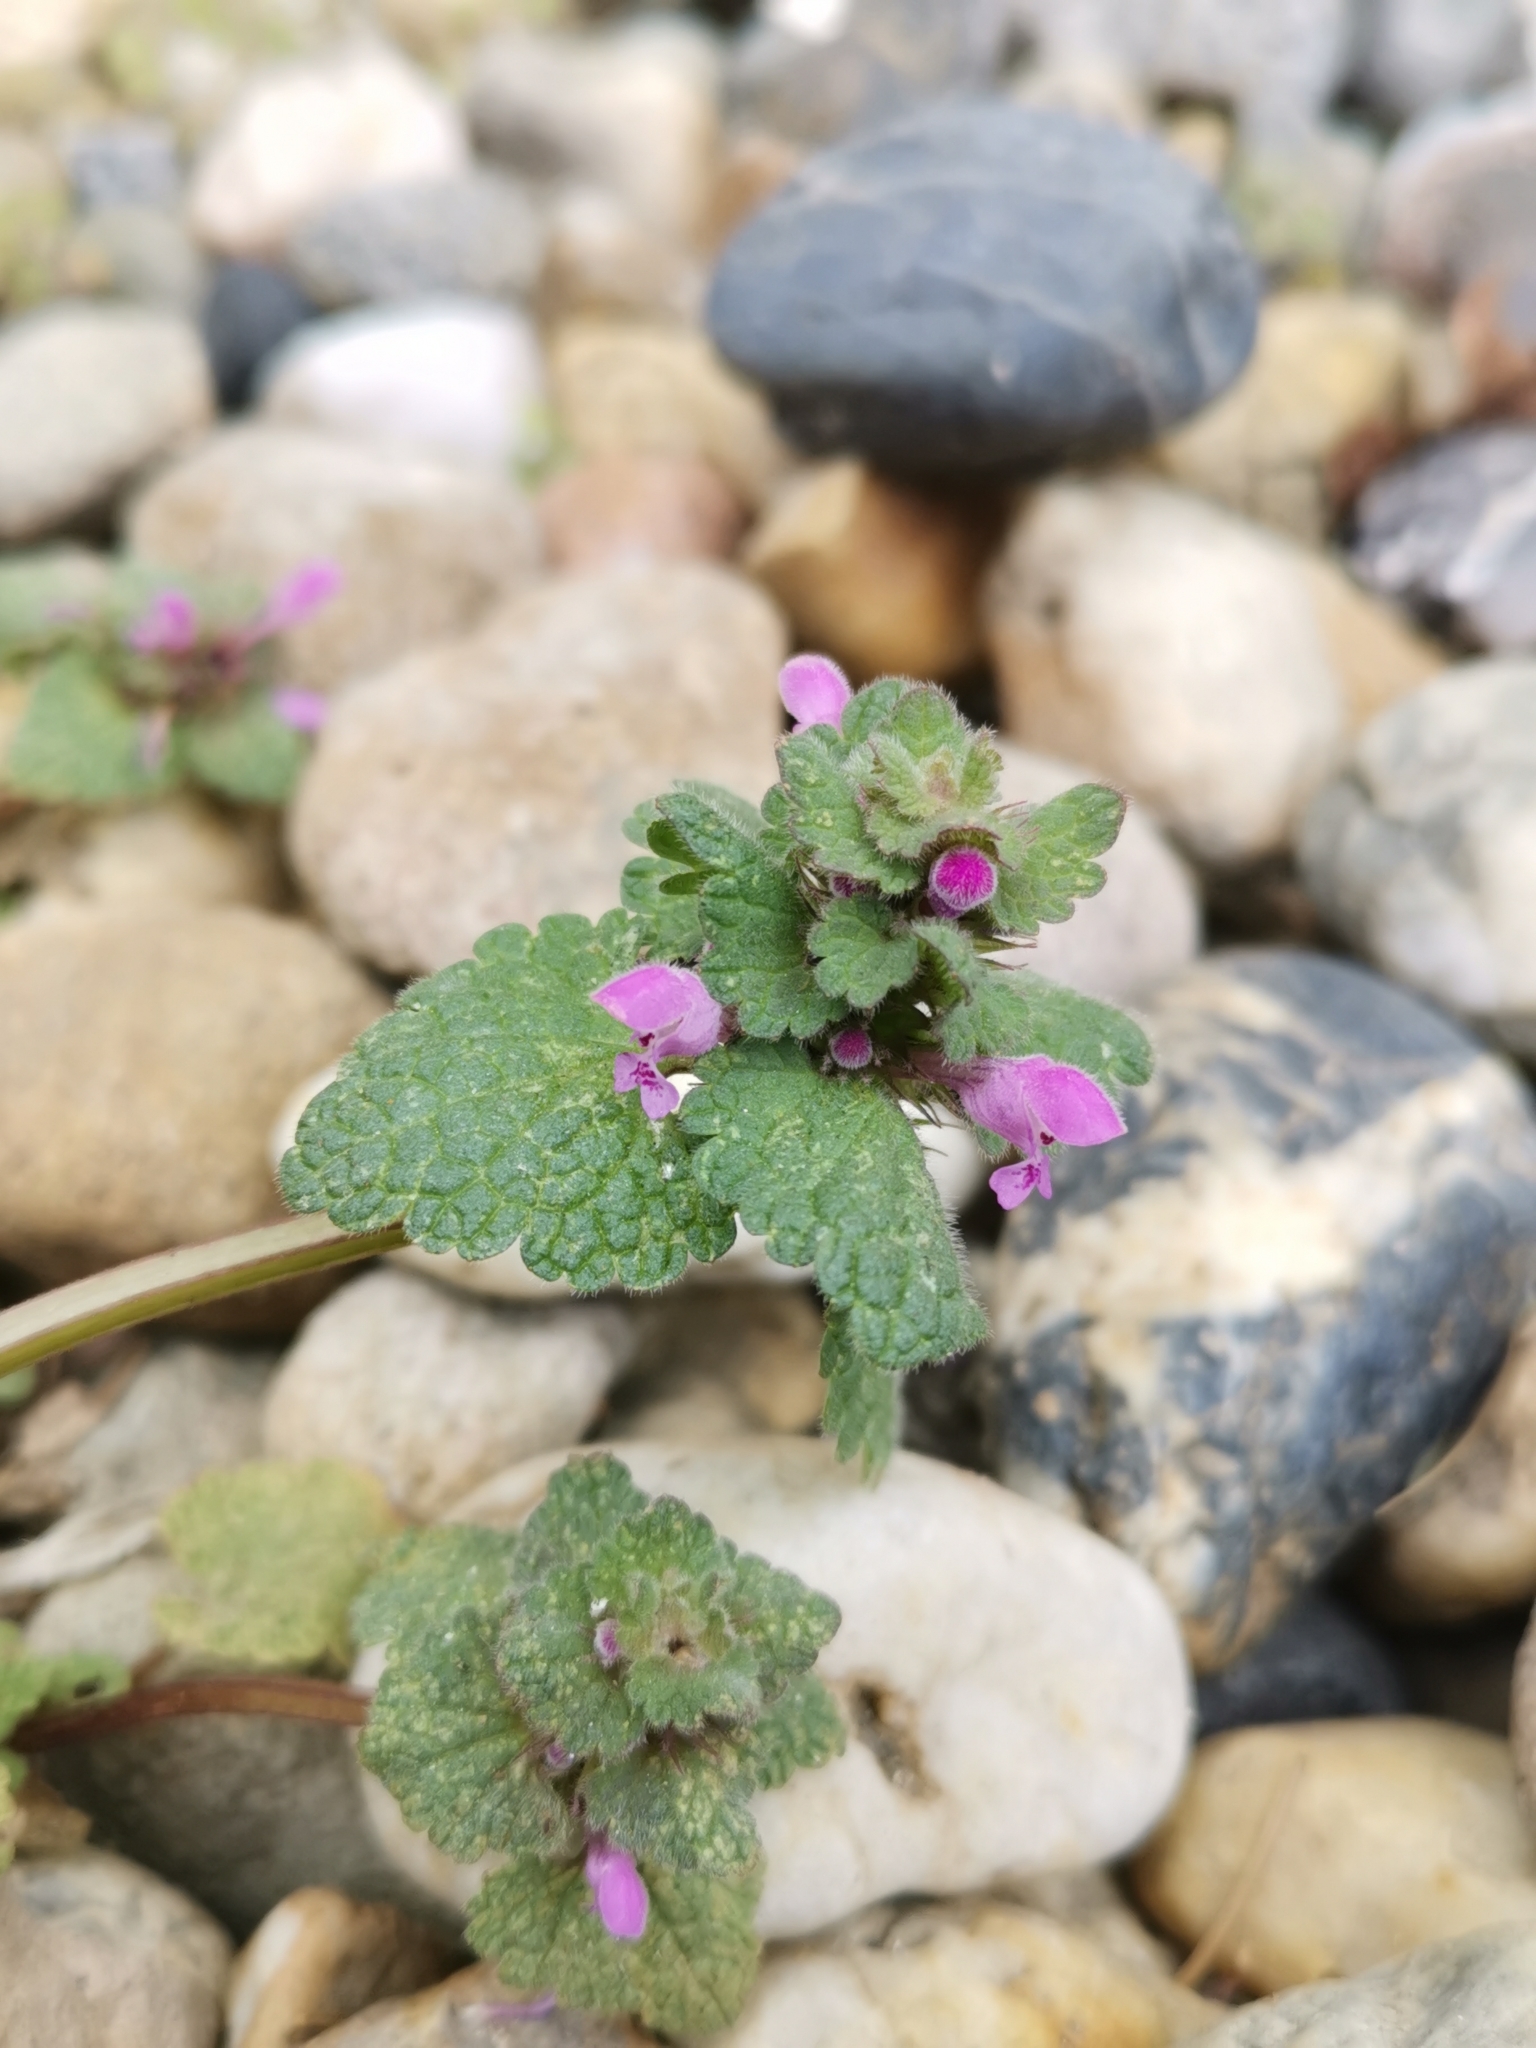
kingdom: Plantae
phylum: Tracheophyta
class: Magnoliopsida
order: Lamiales
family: Lamiaceae
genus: Lamium
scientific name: Lamium purpureum
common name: Red dead-nettle
